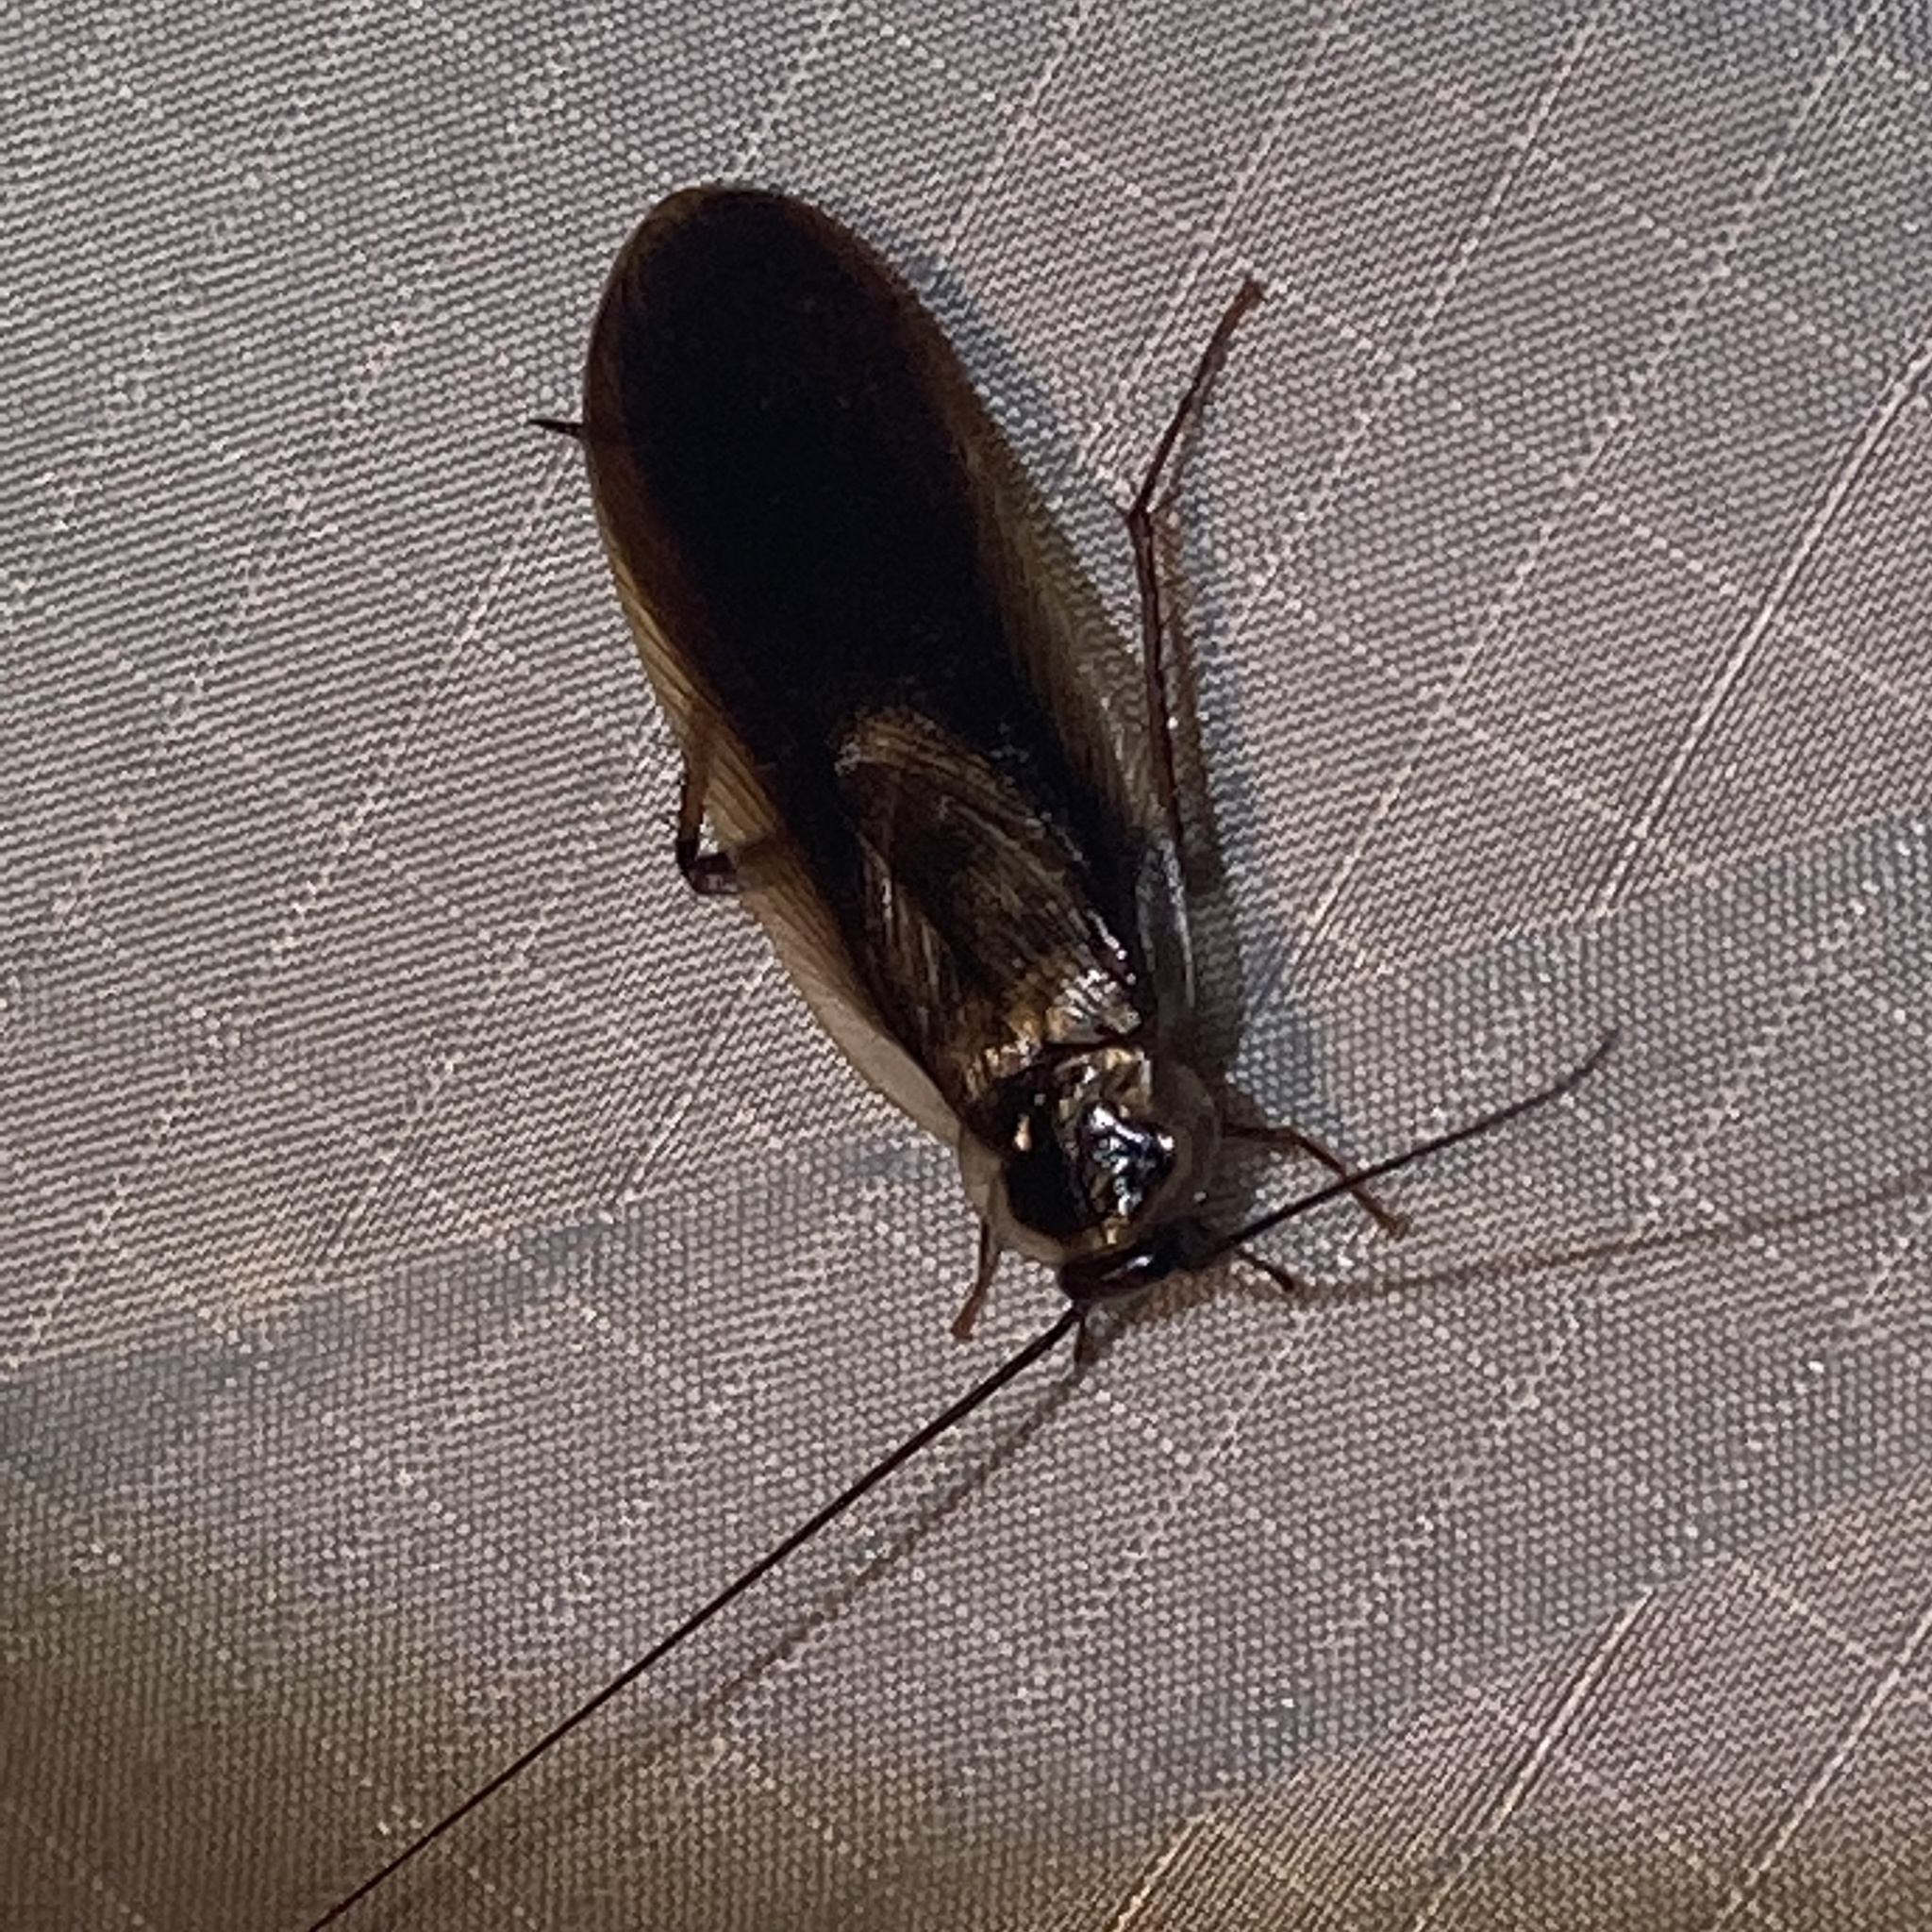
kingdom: Animalia
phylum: Arthropoda
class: Insecta
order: Blattodea
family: Ectobiidae
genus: Parcoblatta
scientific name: Parcoblatta pennsylvanica
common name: Pennsylvanian wood cockroach
